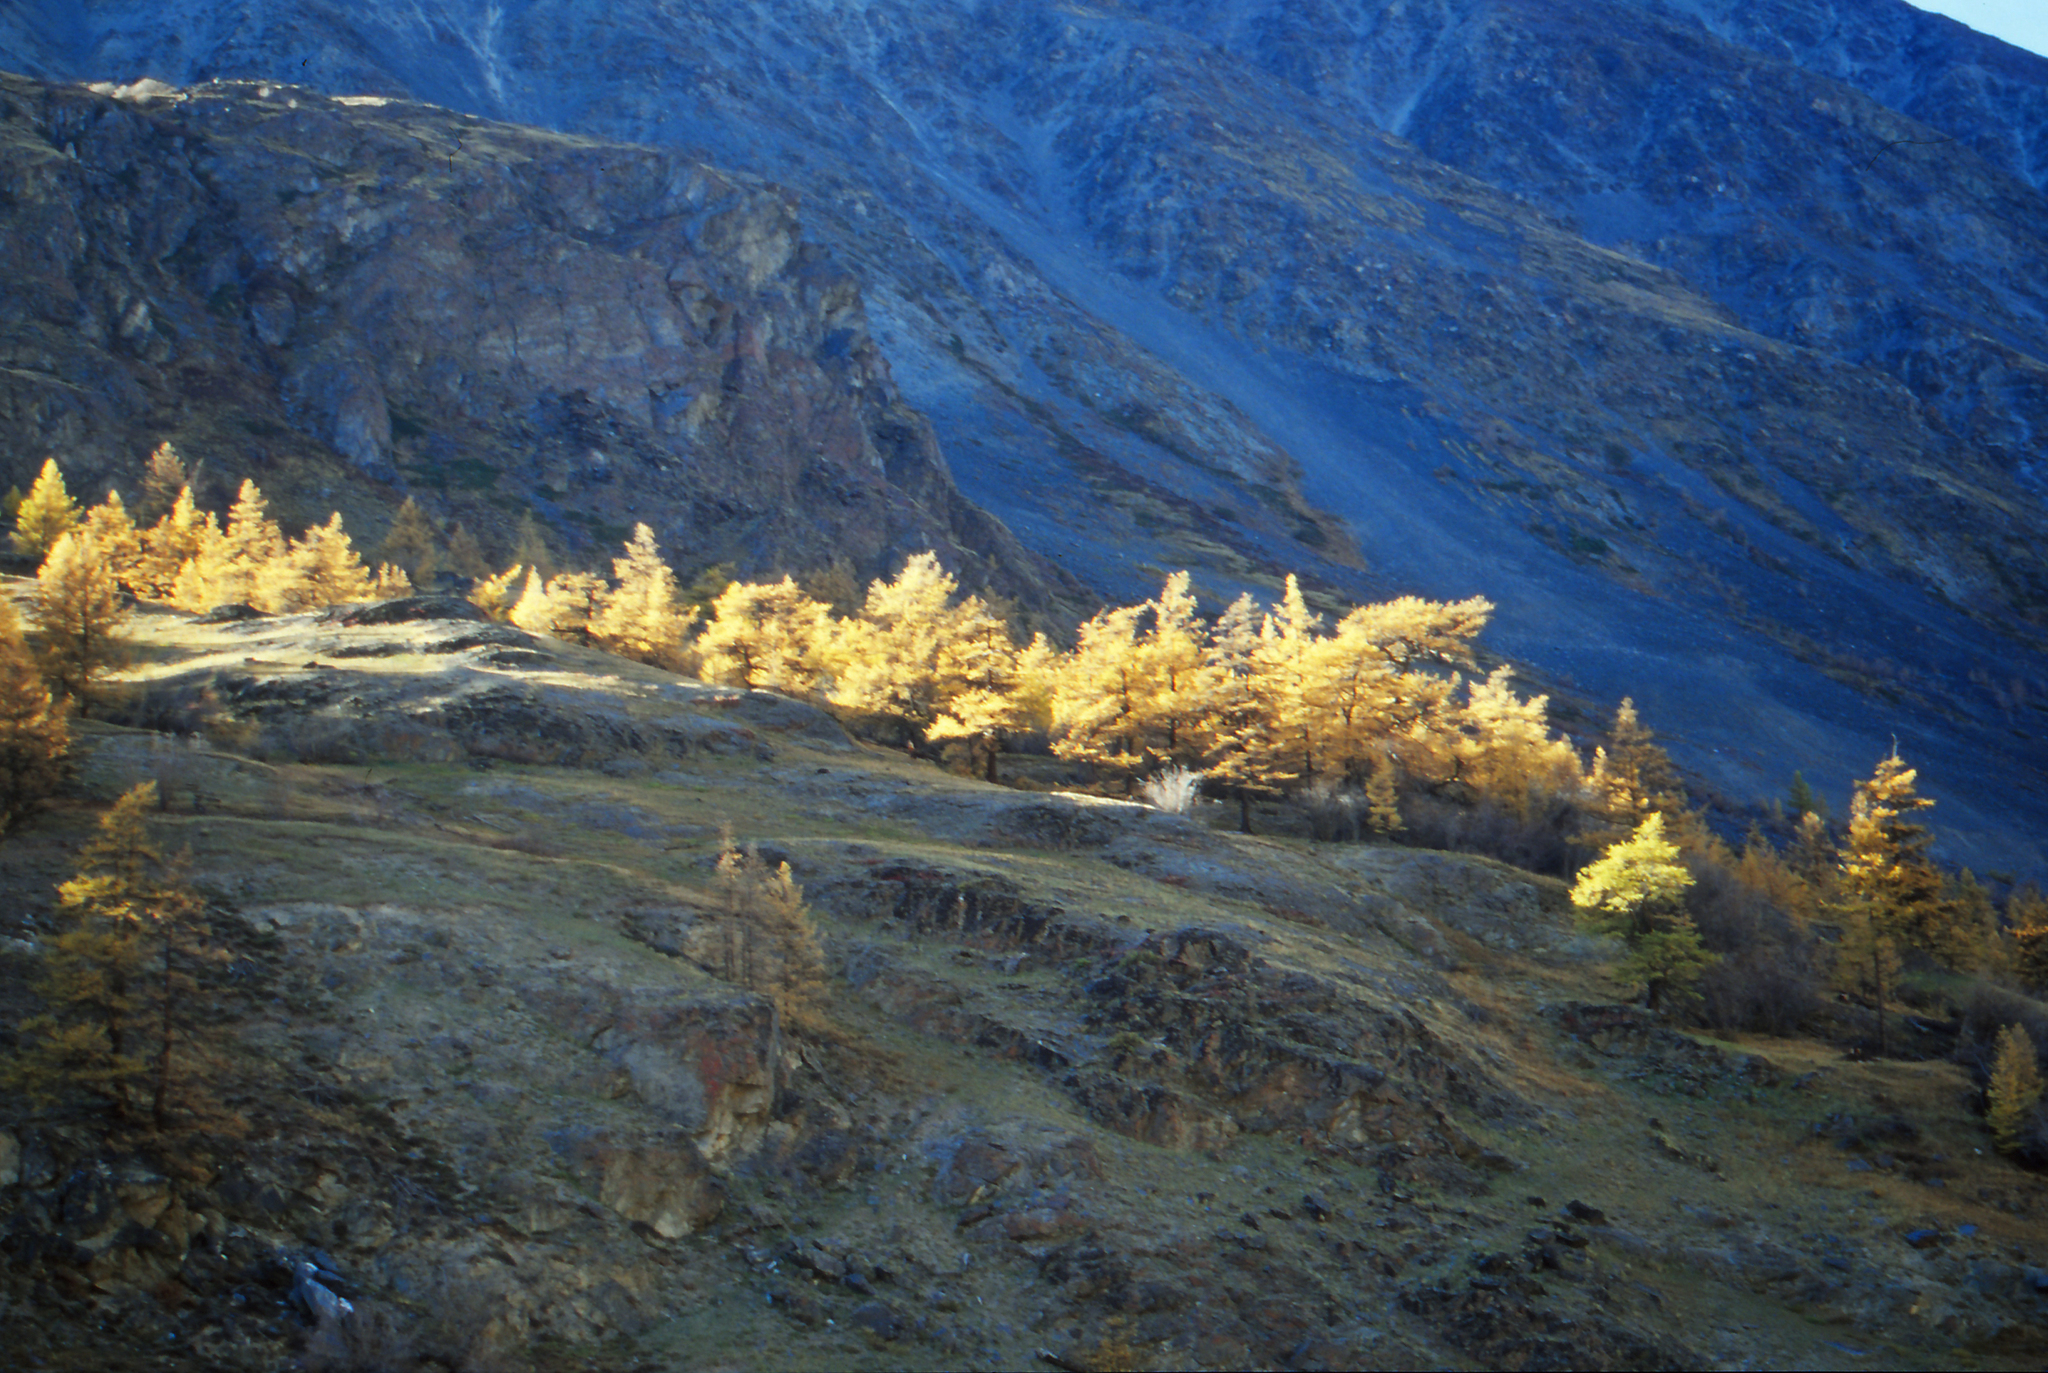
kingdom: Plantae
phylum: Tracheophyta
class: Pinopsida
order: Pinales
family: Pinaceae
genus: Larix
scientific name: Larix sibirica
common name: Siberian larch
